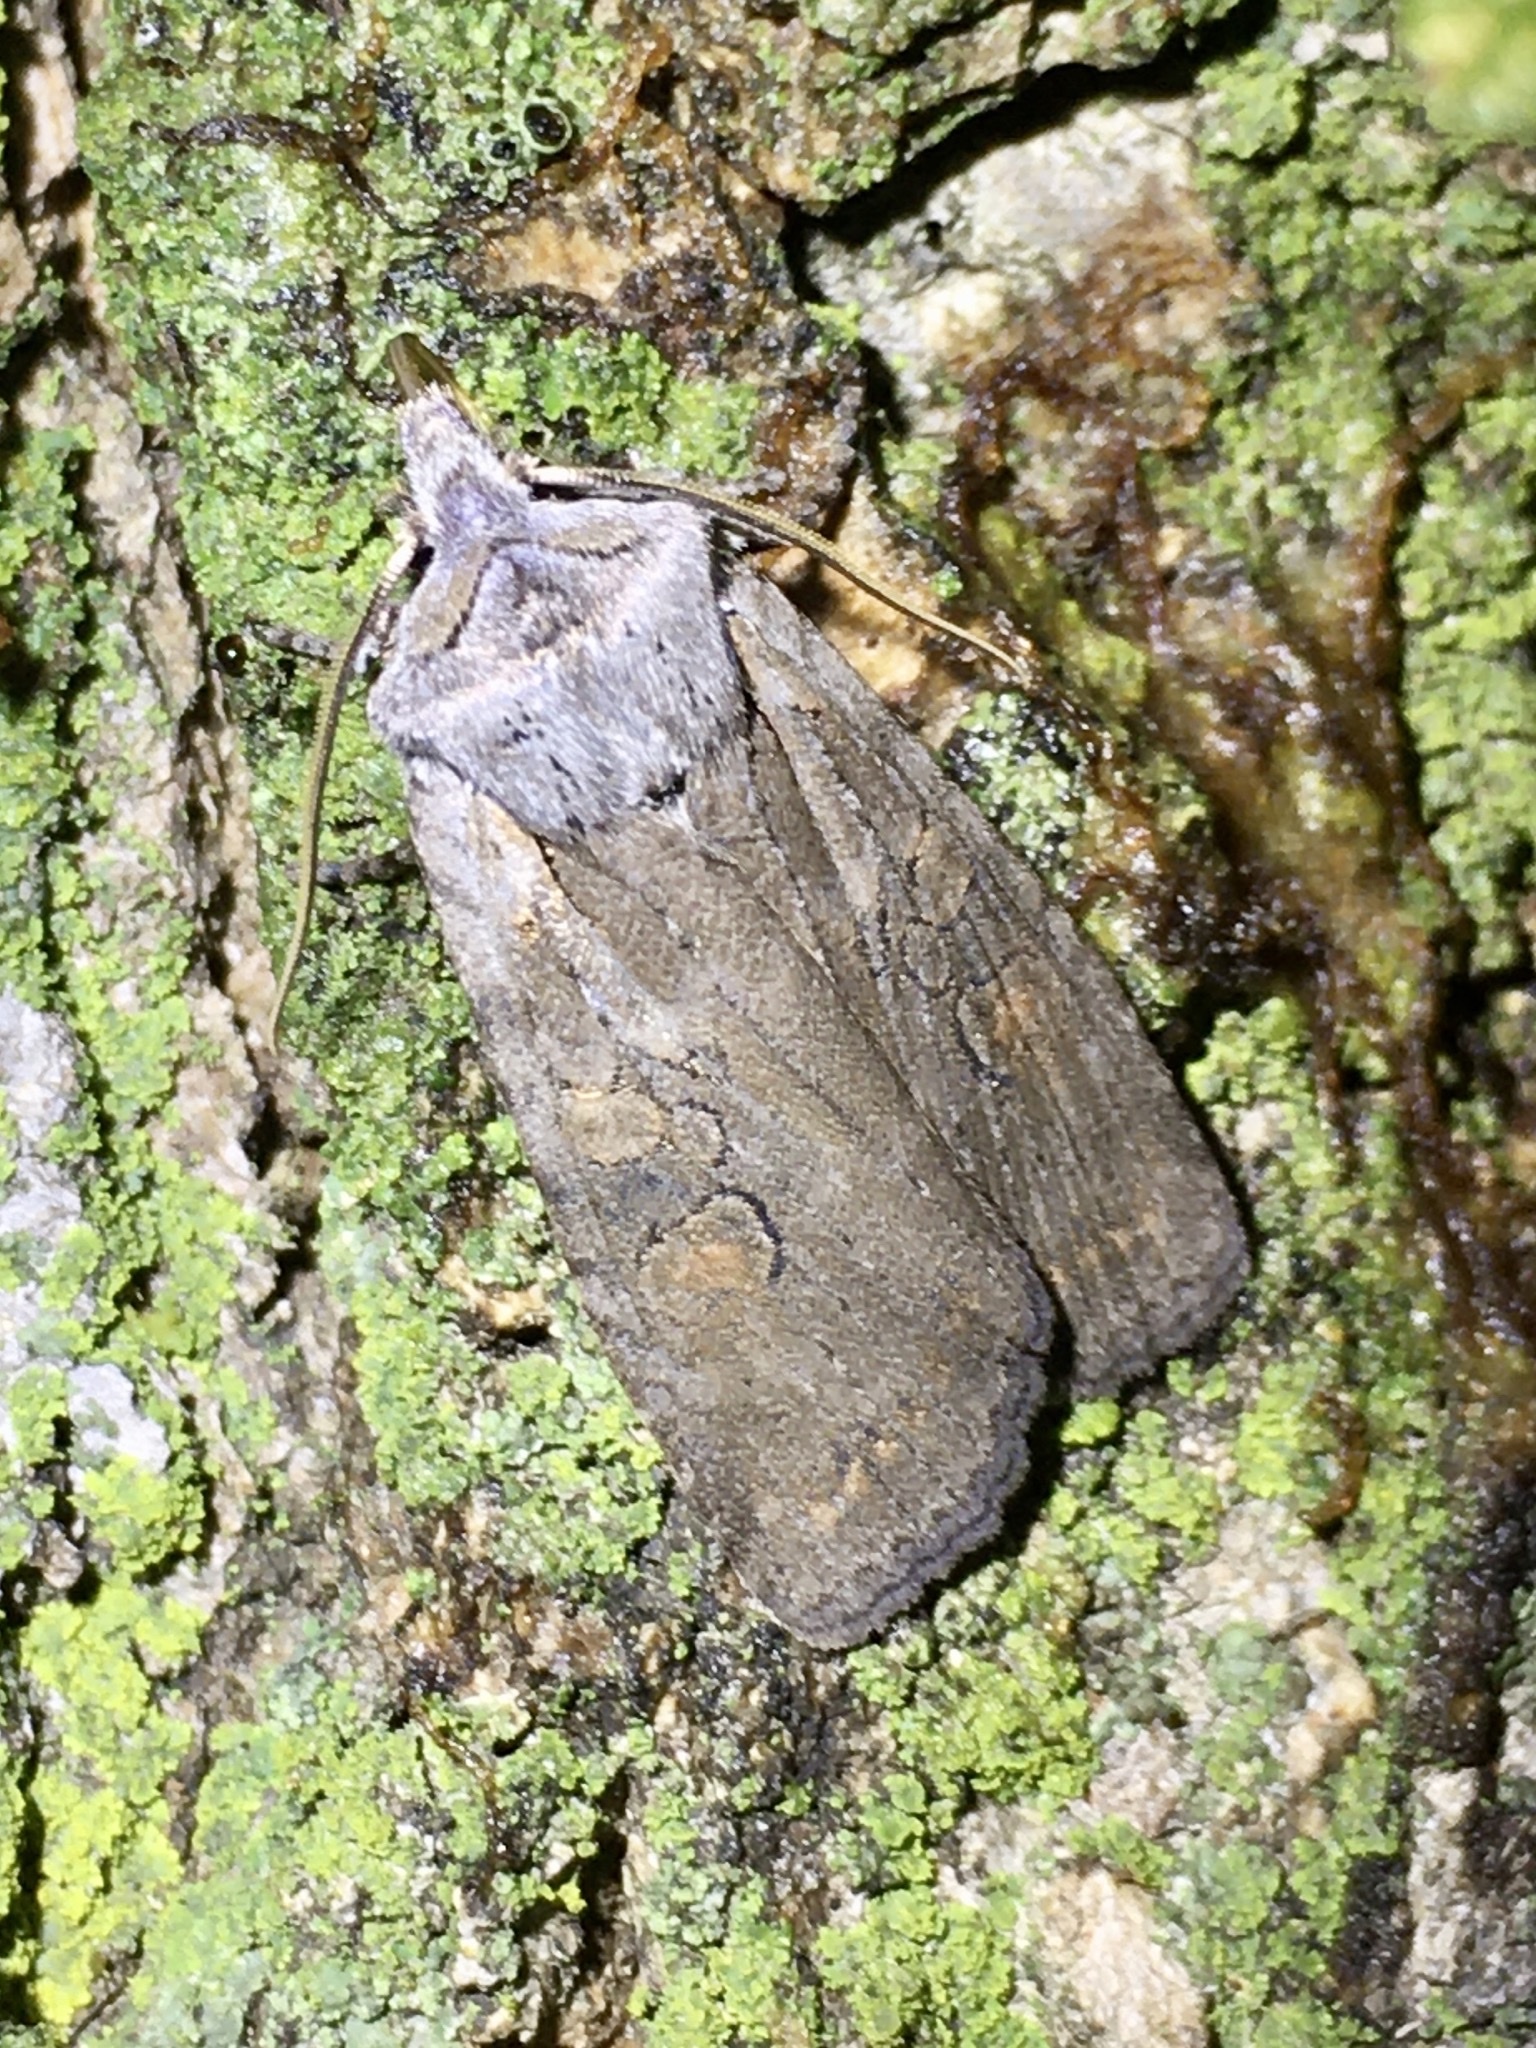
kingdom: Animalia
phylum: Arthropoda
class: Insecta
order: Lepidoptera
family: Noctuidae
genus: Lithophane
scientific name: Lithophane antennata
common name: Ashen pinion
